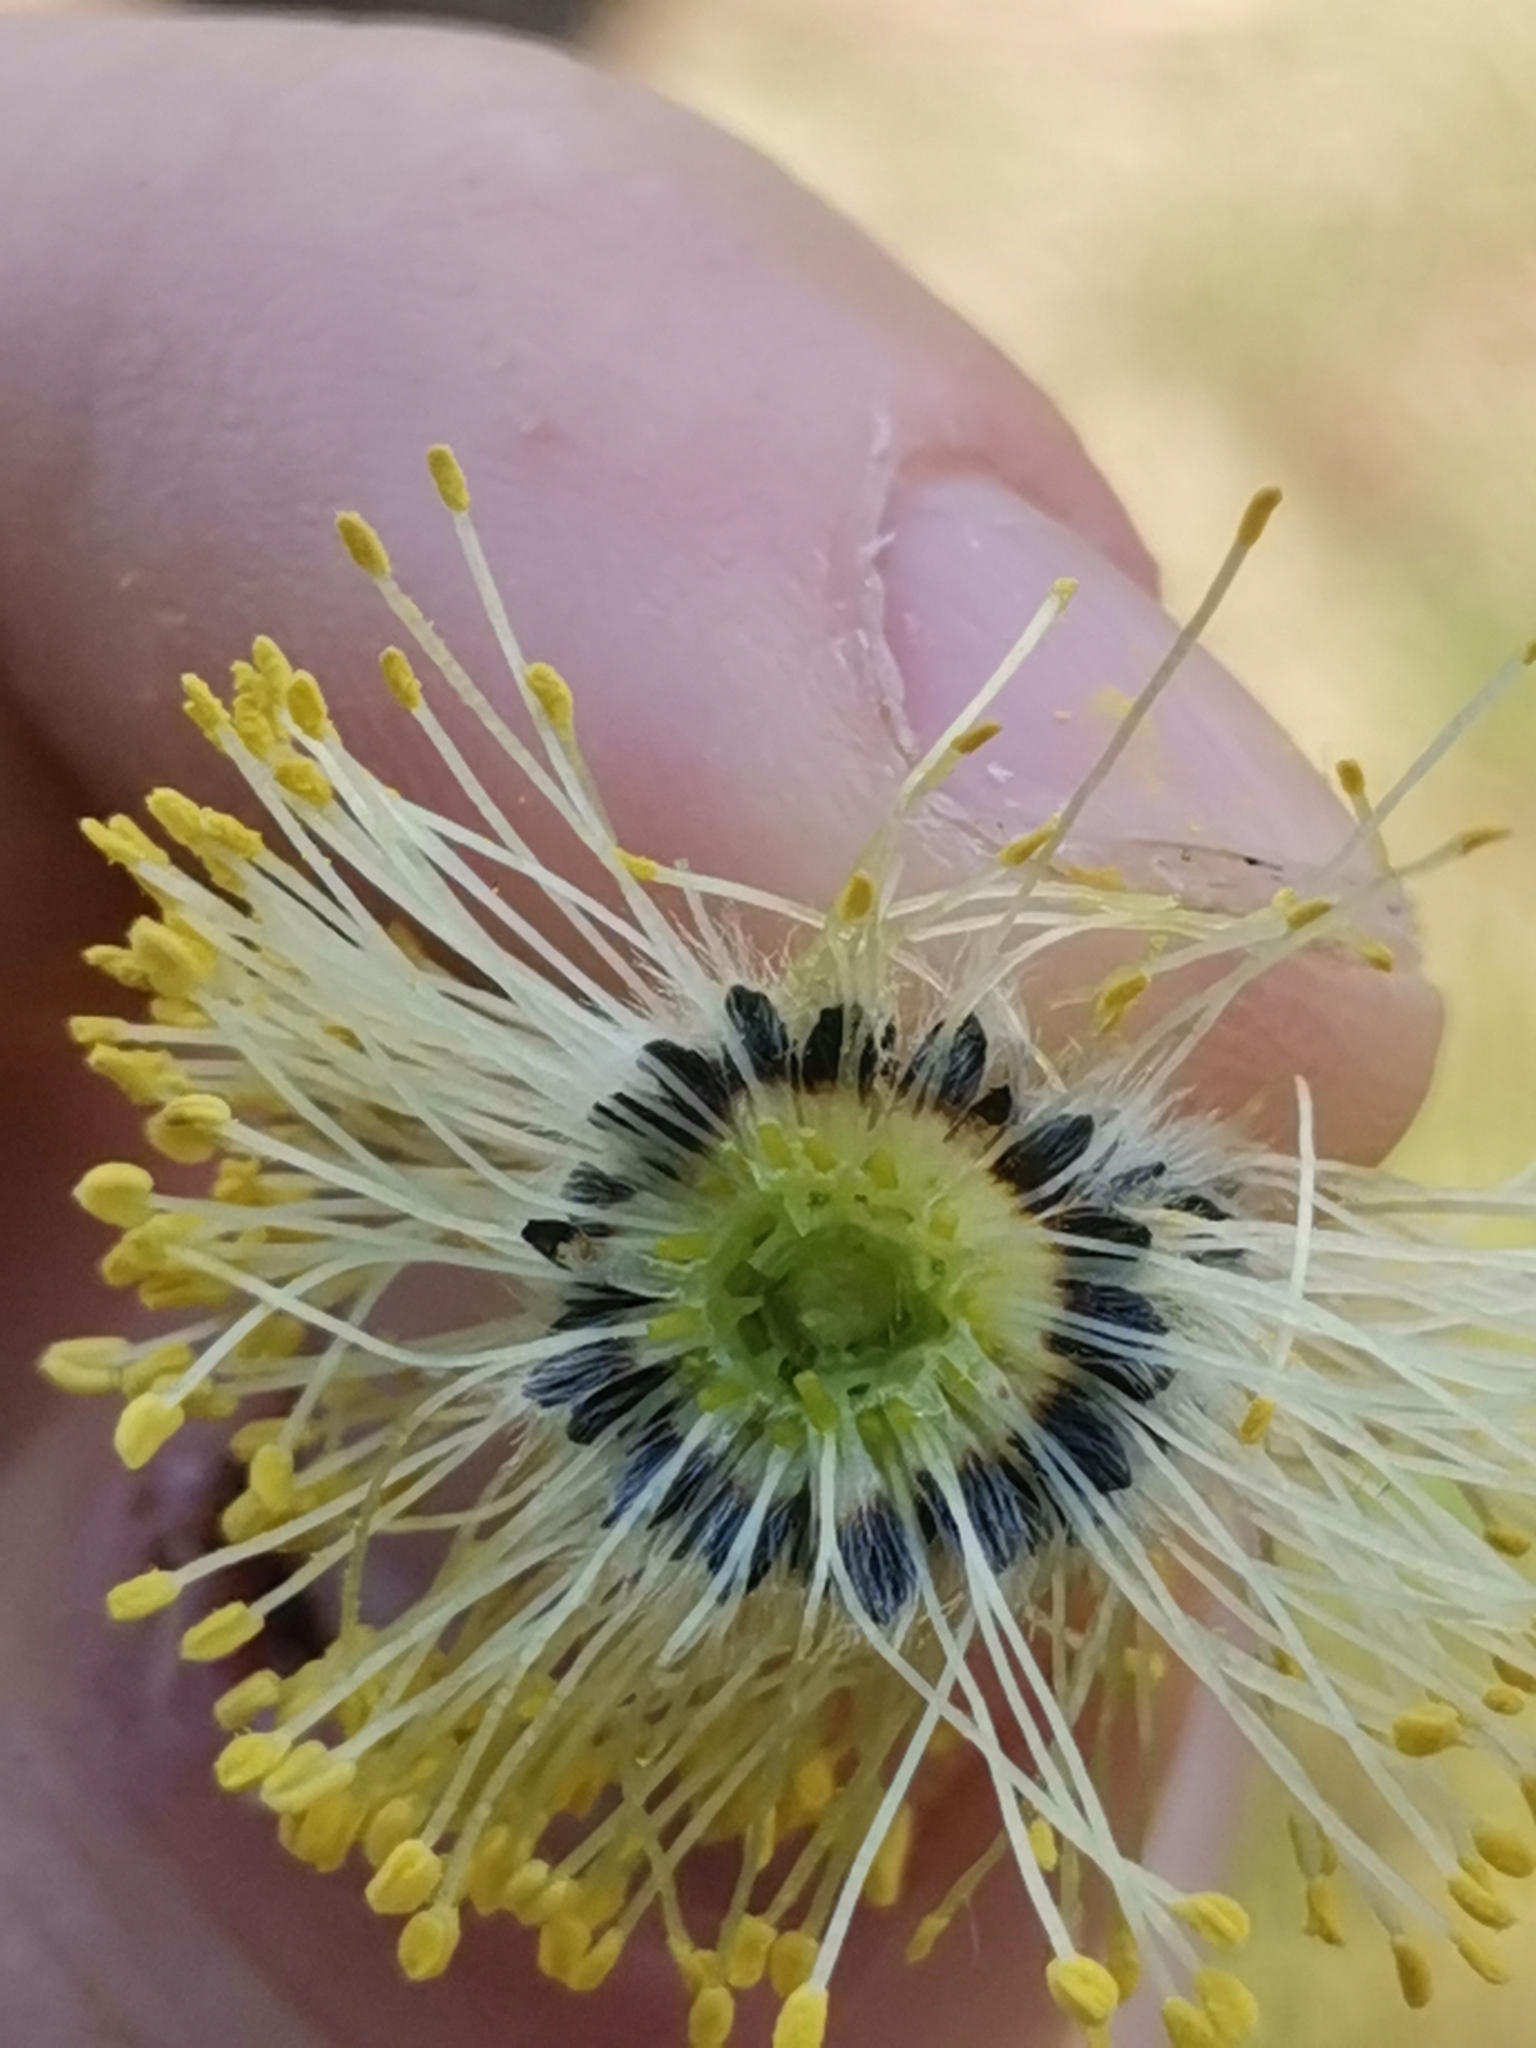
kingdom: Plantae
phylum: Tracheophyta
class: Magnoliopsida
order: Malpighiales
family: Salicaceae
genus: Salix
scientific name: Salix caprea
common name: Goat willow
